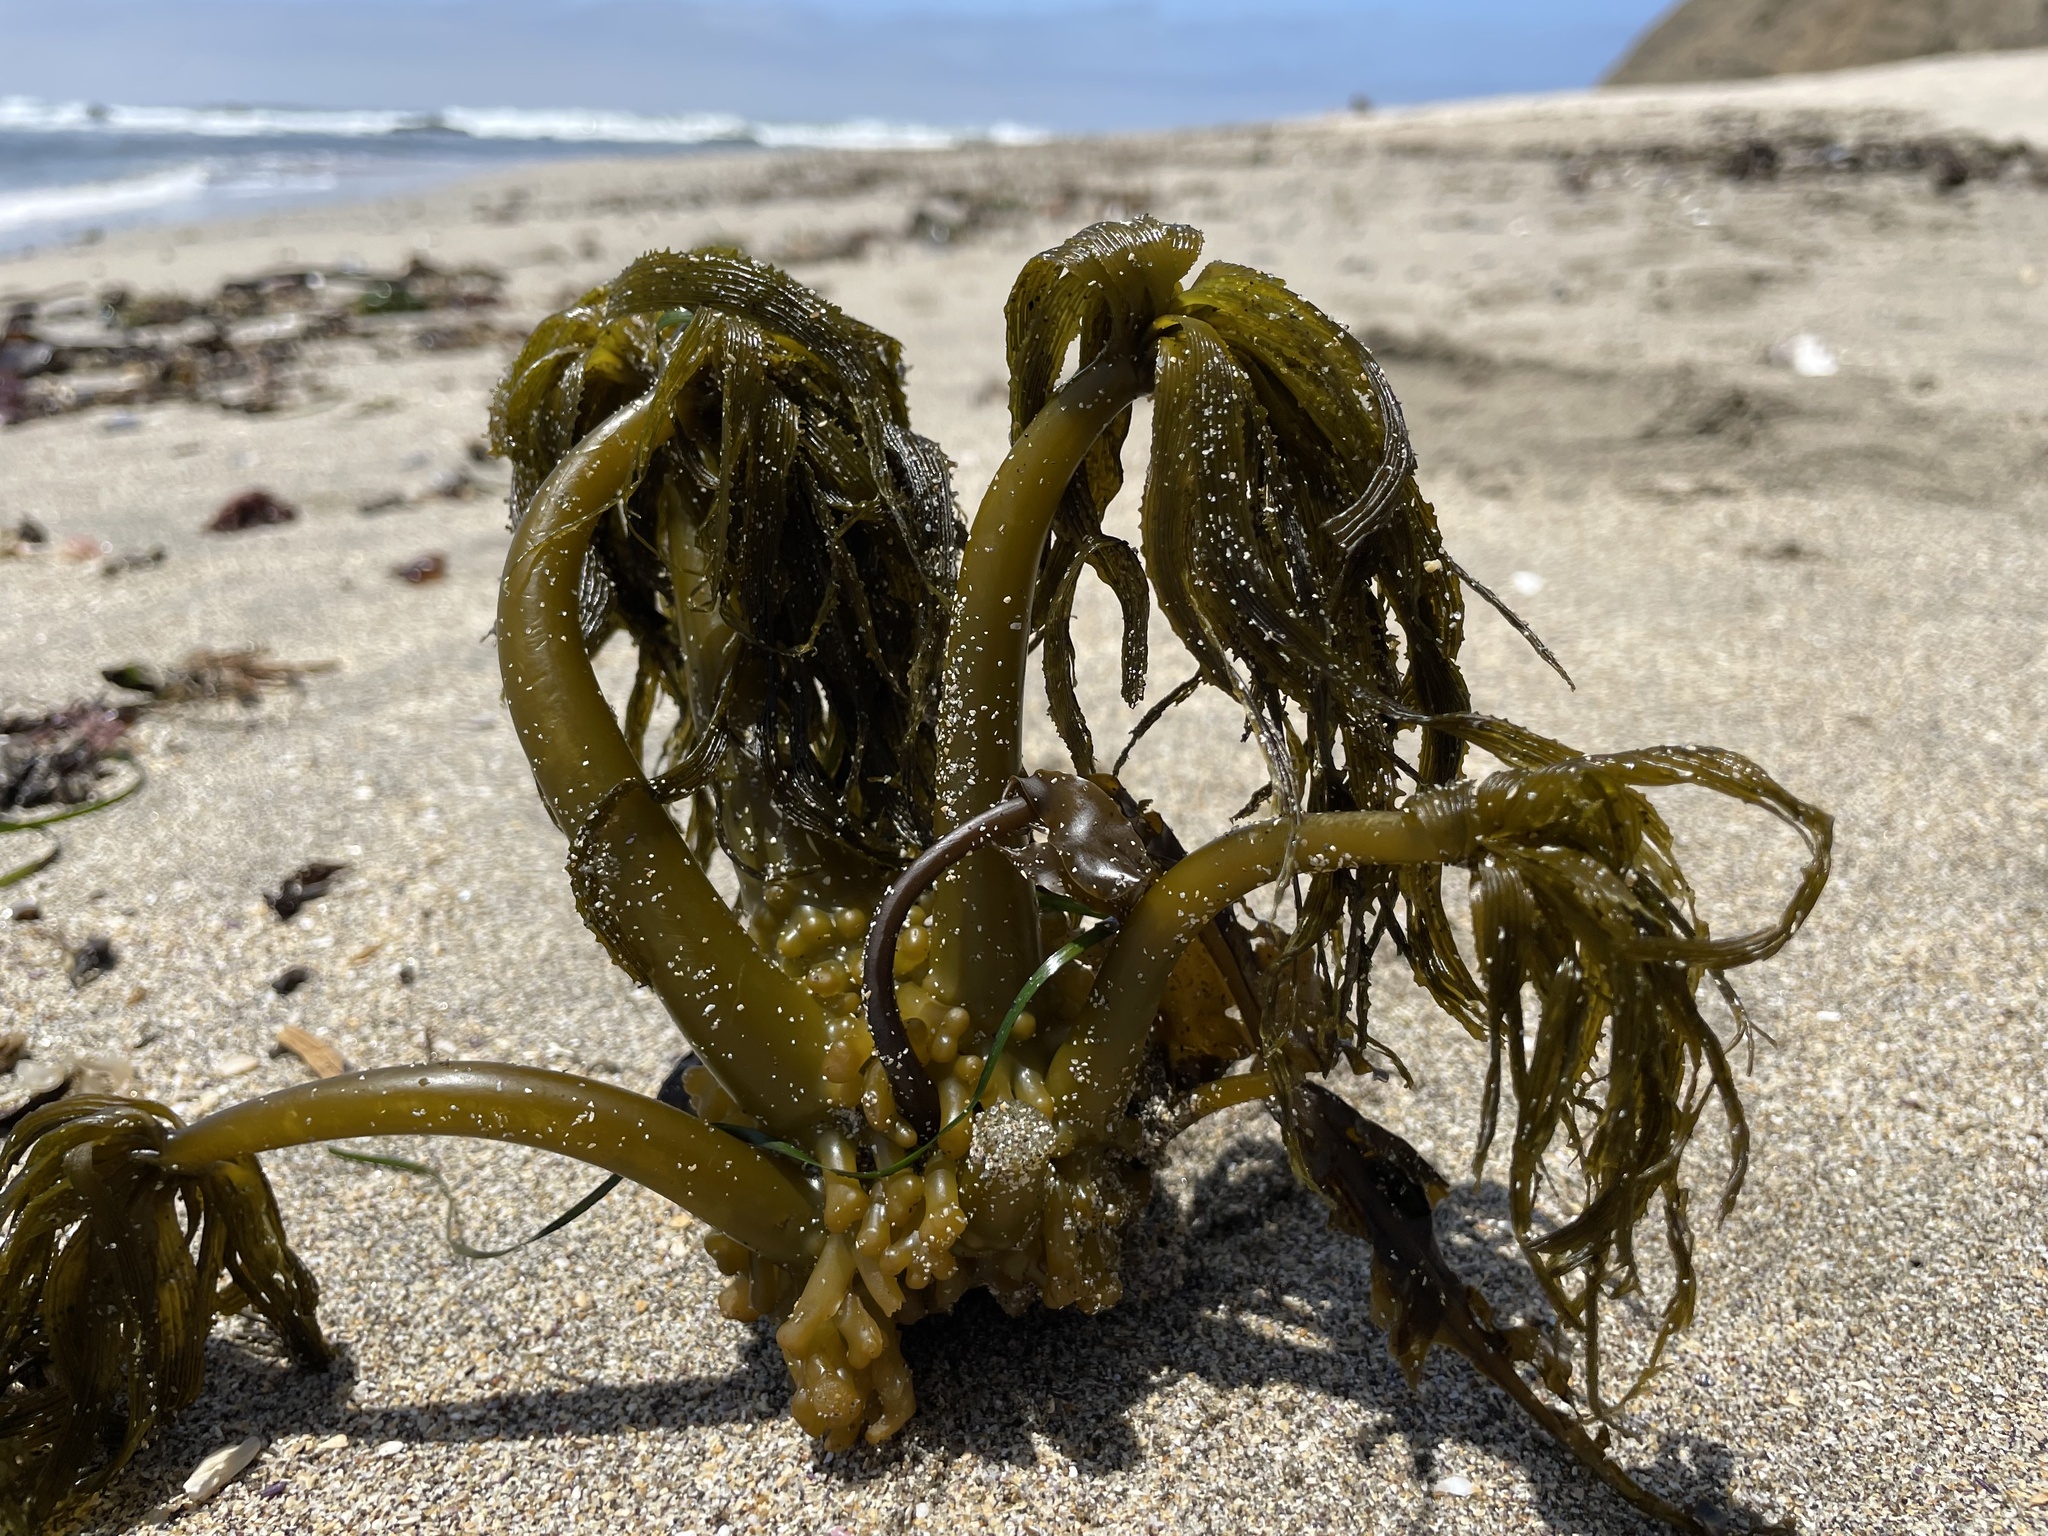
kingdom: Chromista
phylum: Ochrophyta
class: Phaeophyceae
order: Laminariales
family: Laminariaceae
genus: Postelsia
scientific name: Postelsia palmiformis
